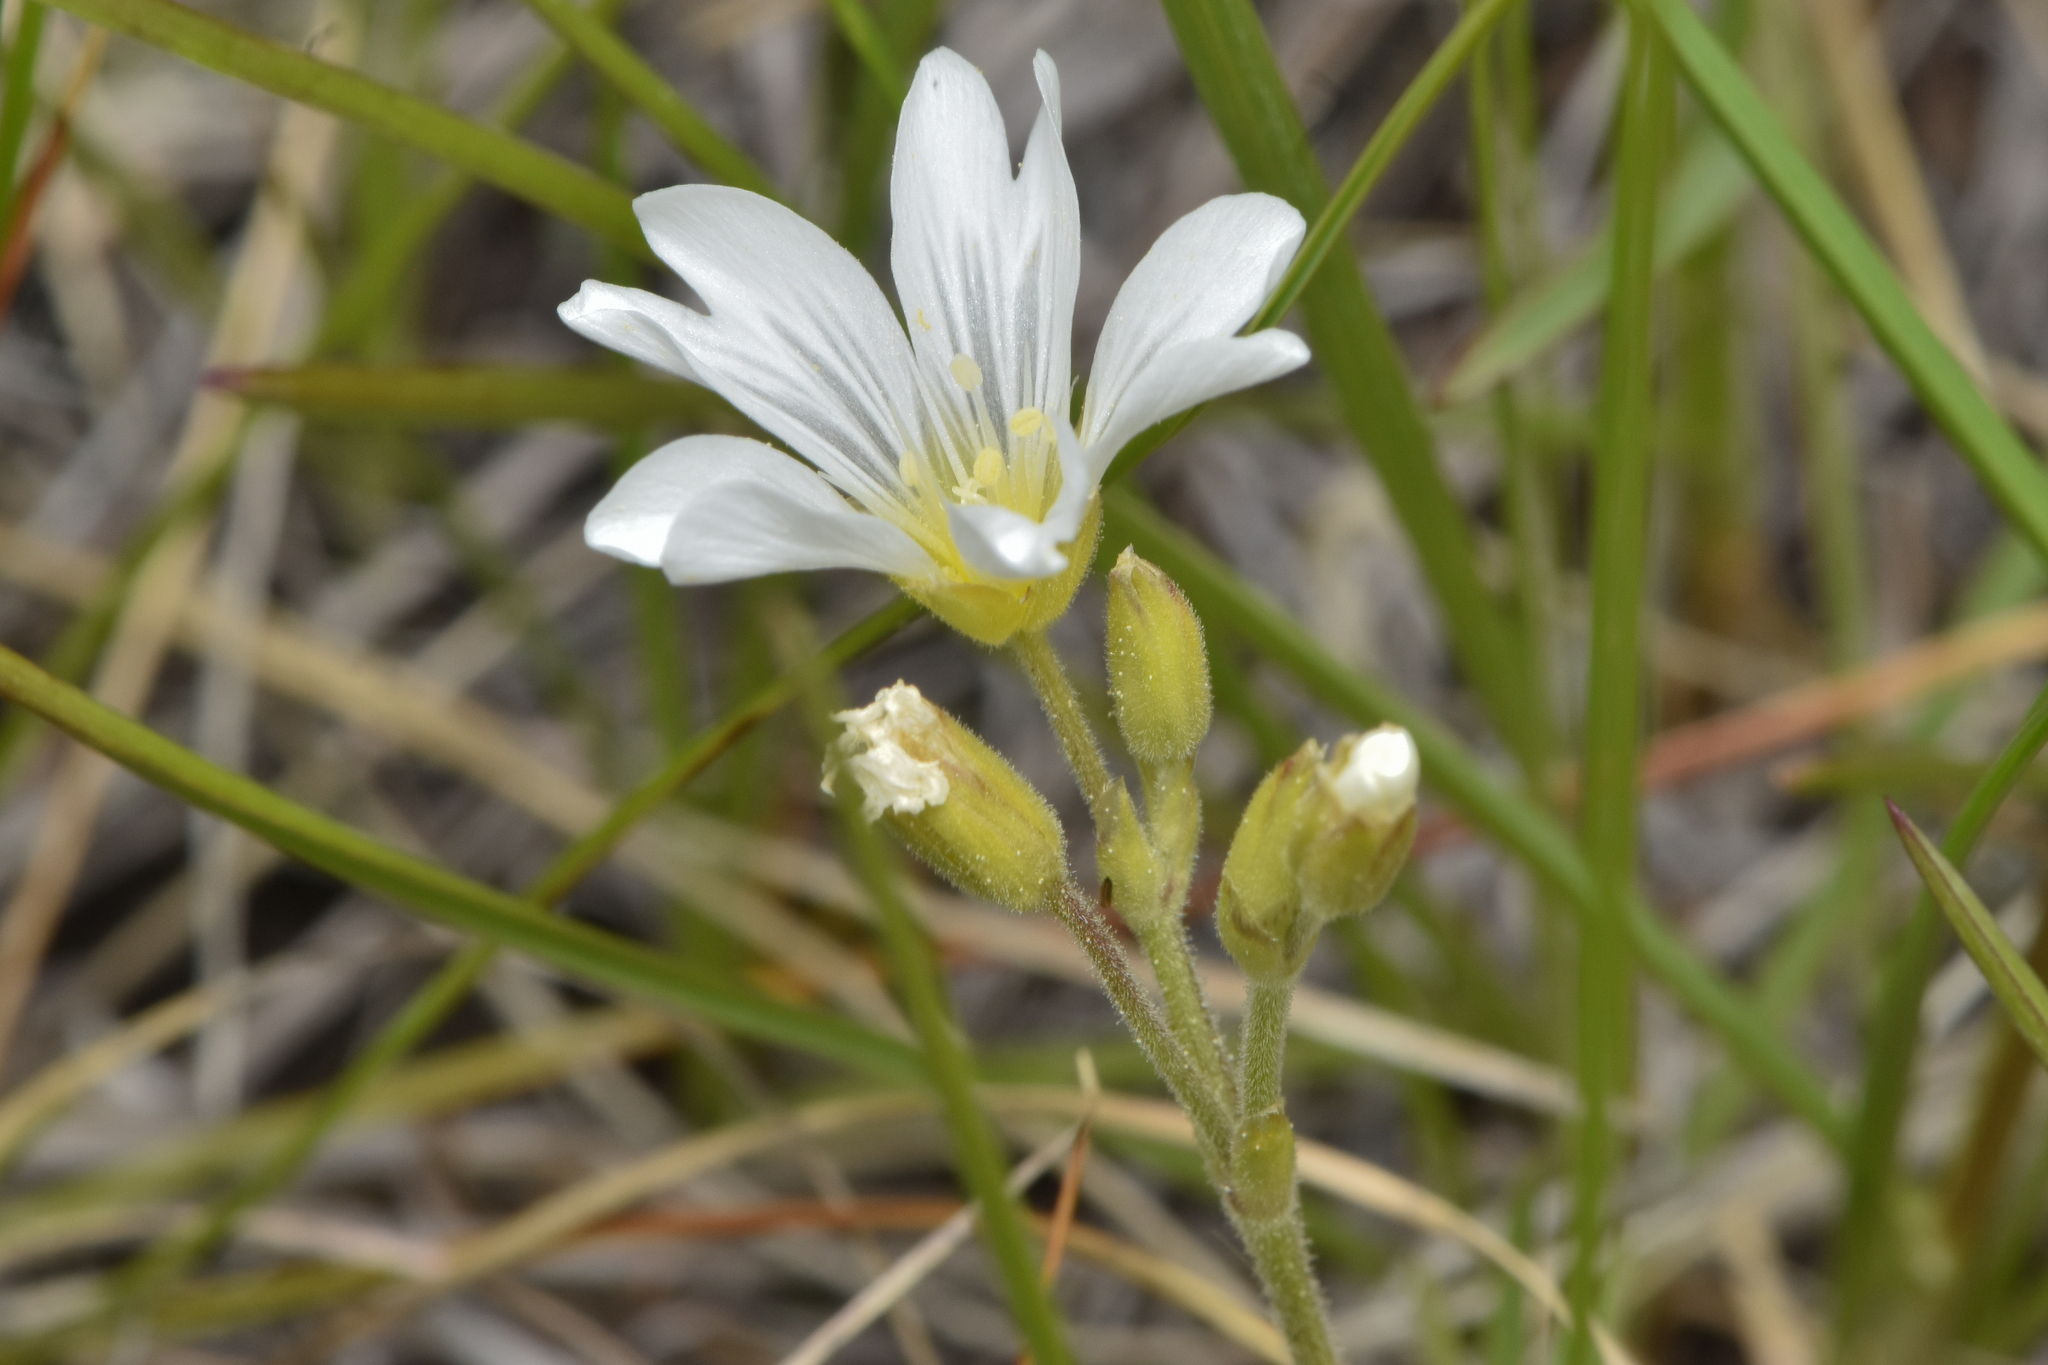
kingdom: Plantae
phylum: Tracheophyta
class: Magnoliopsida
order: Caryophyllales
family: Caryophyllaceae
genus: Cerastium
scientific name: Cerastium arvense
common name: Field mouse-ear
